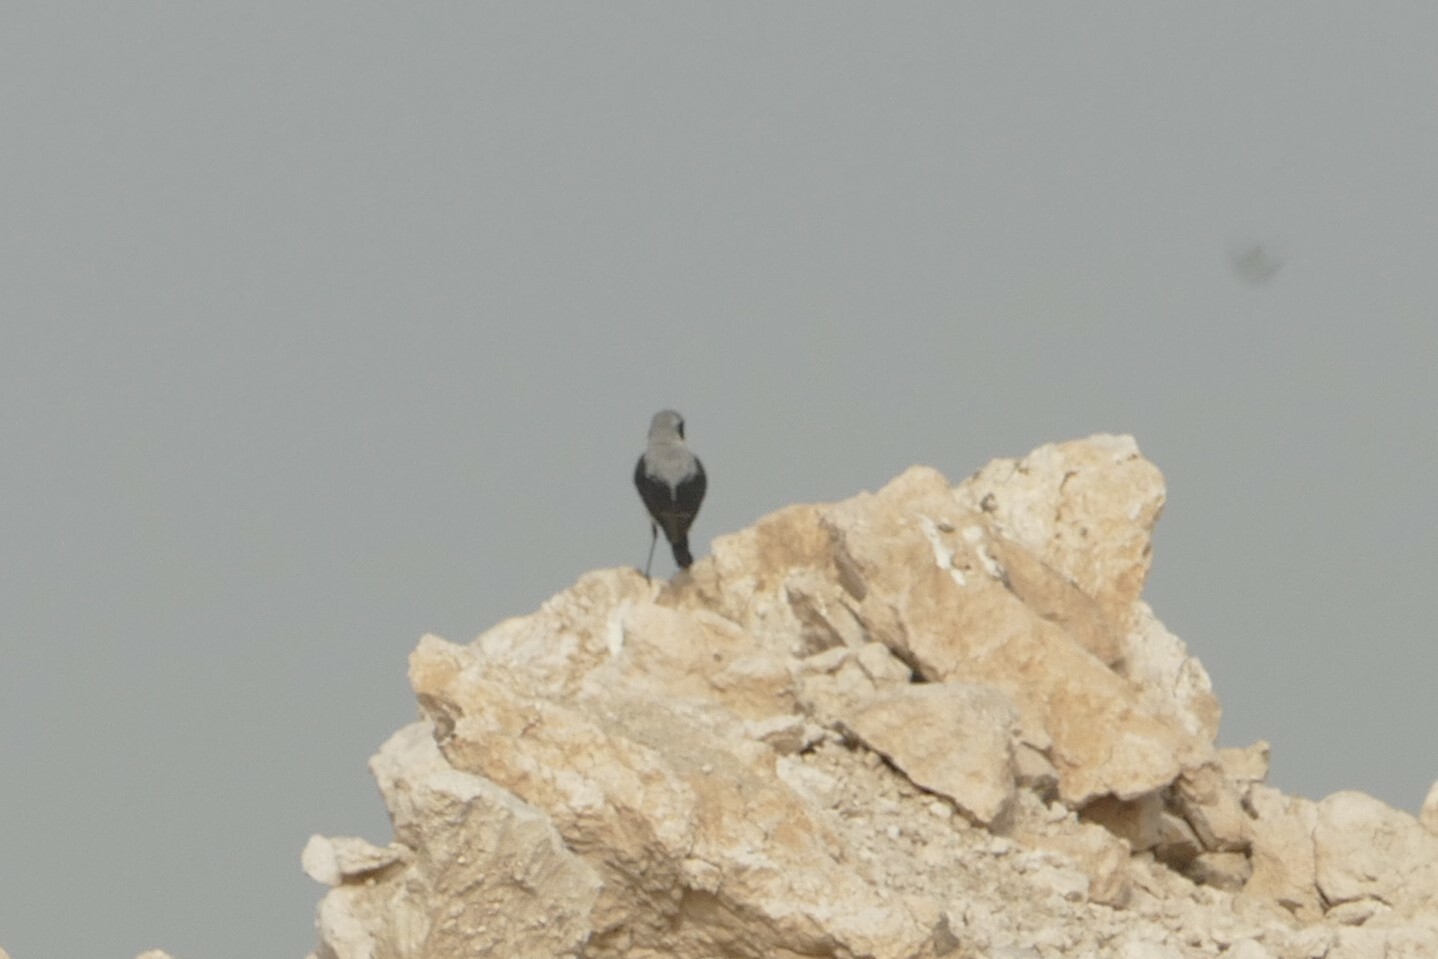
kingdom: Animalia
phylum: Chordata
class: Aves
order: Passeriformes
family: Muscicapidae
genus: Oenanthe
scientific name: Oenanthe oenanthe
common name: Northern wheatear
